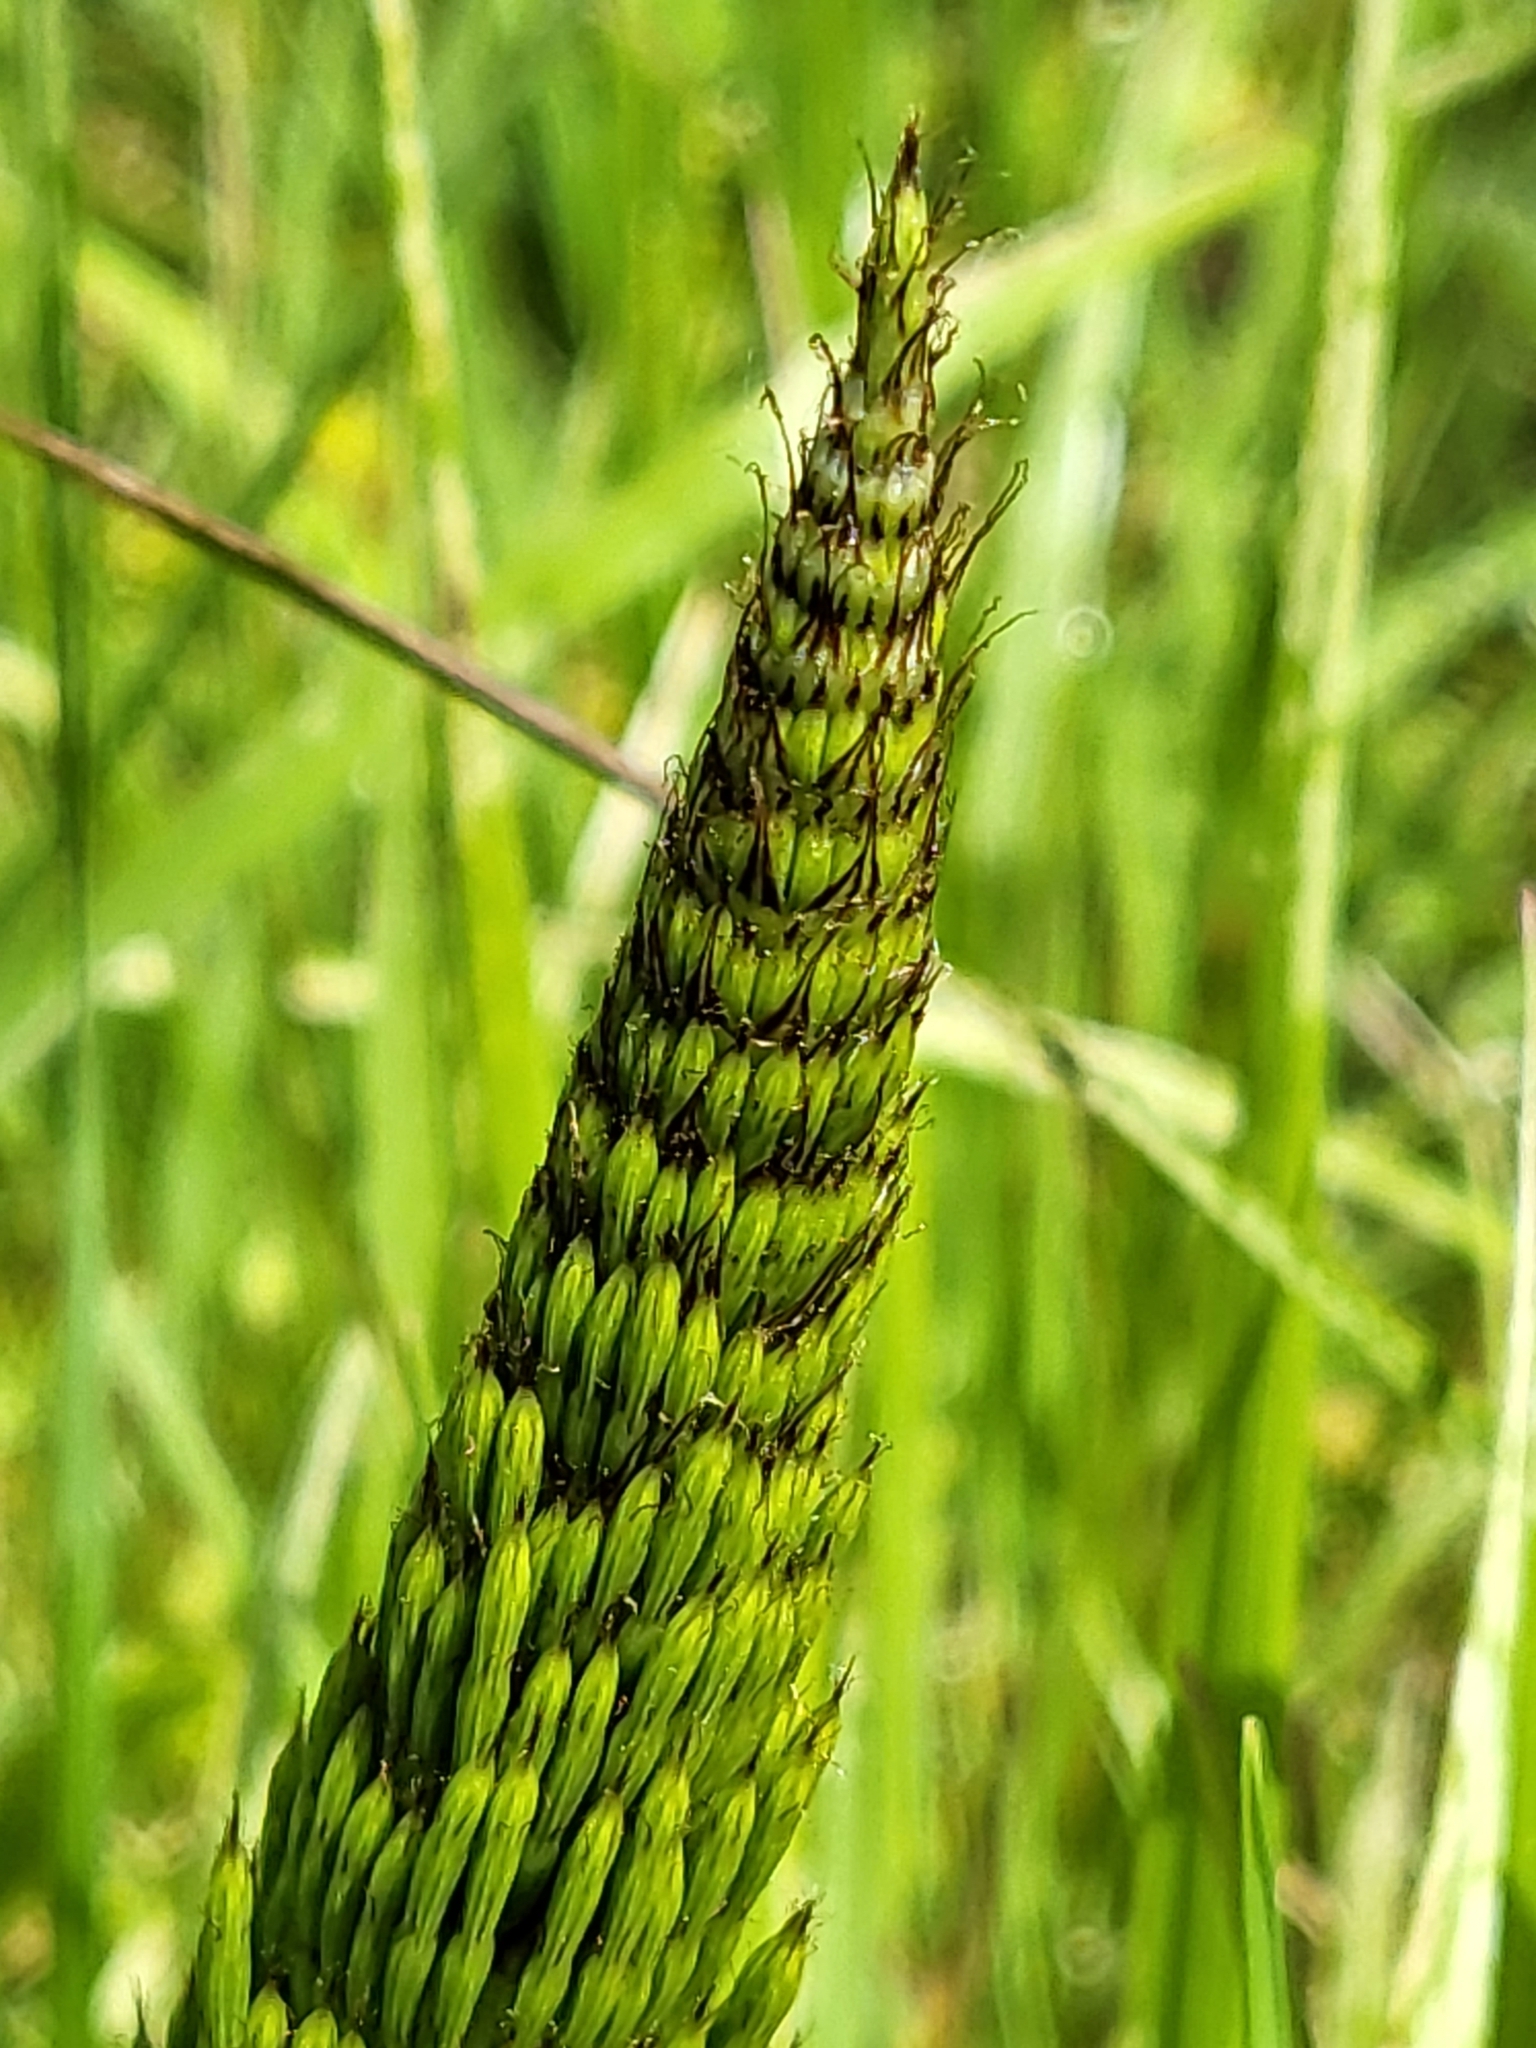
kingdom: Plantae
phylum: Tracheophyta
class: Polypodiopsida
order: Equisetales
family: Equisetaceae
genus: Equisetum
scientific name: Equisetum telmateia
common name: Great horsetail
